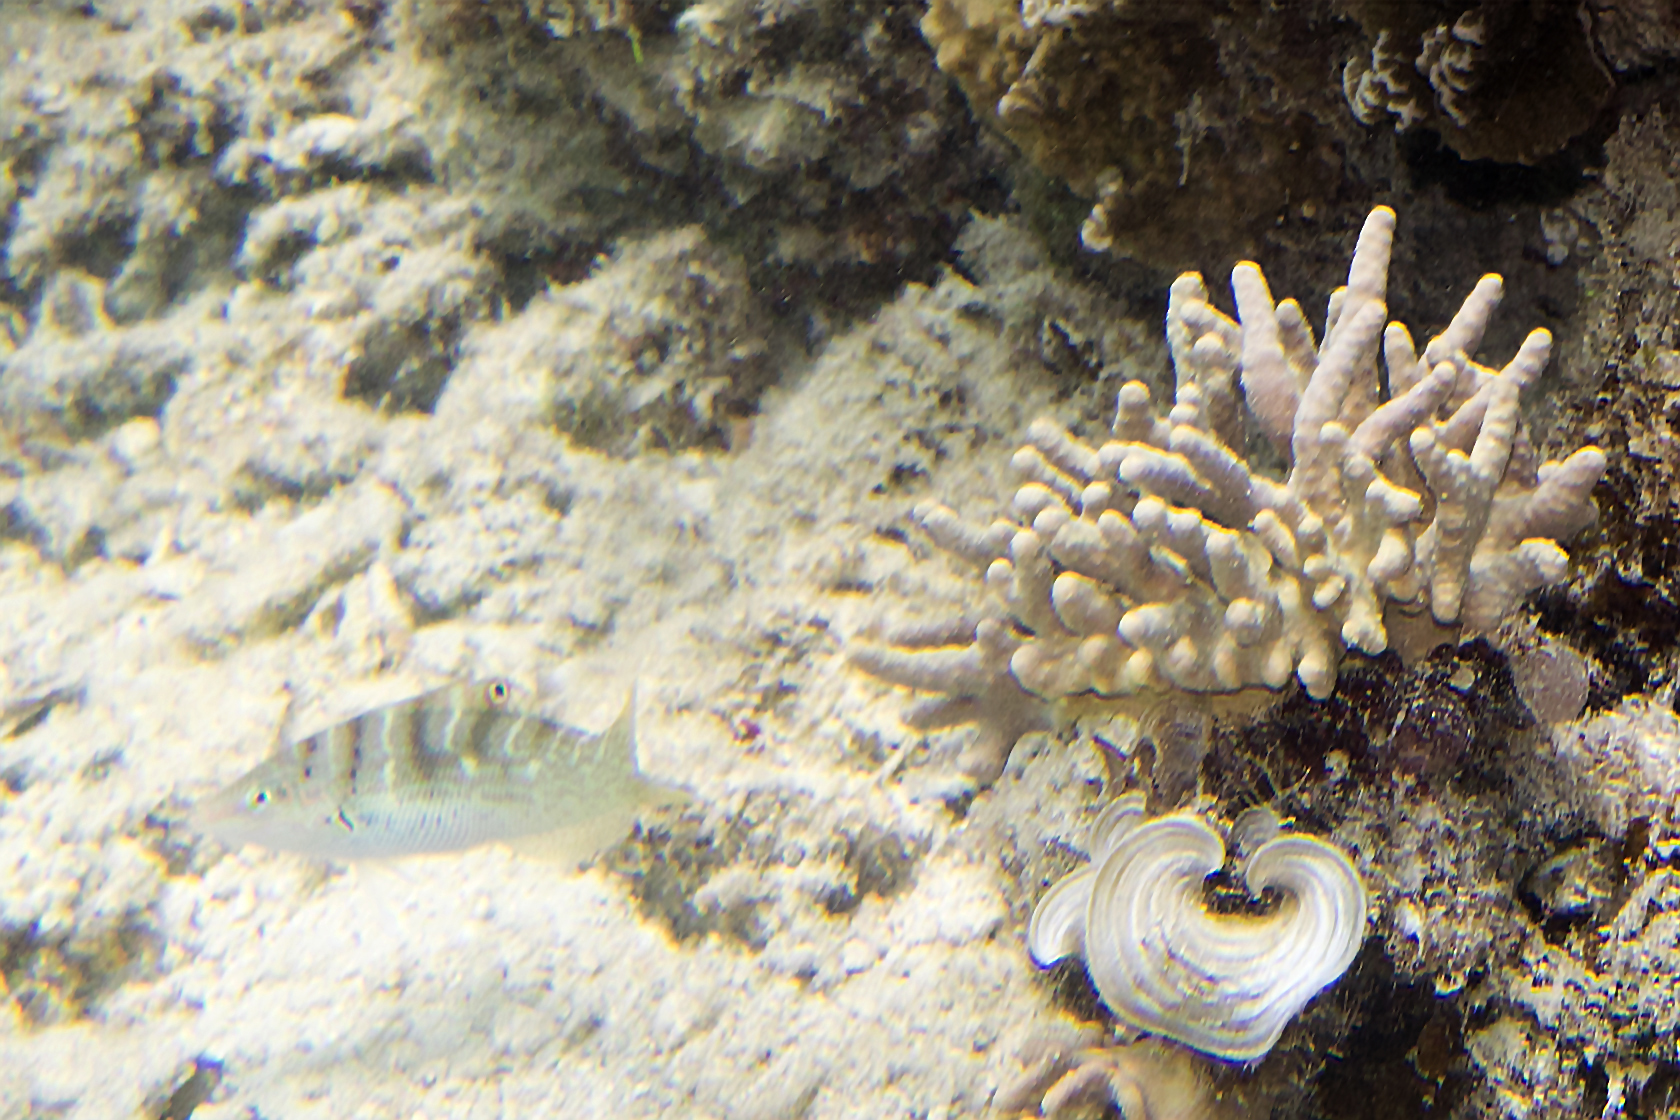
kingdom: Animalia
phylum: Chordata
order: Perciformes
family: Labridae
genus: Coris
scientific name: Coris batuensis
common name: Batu coris
